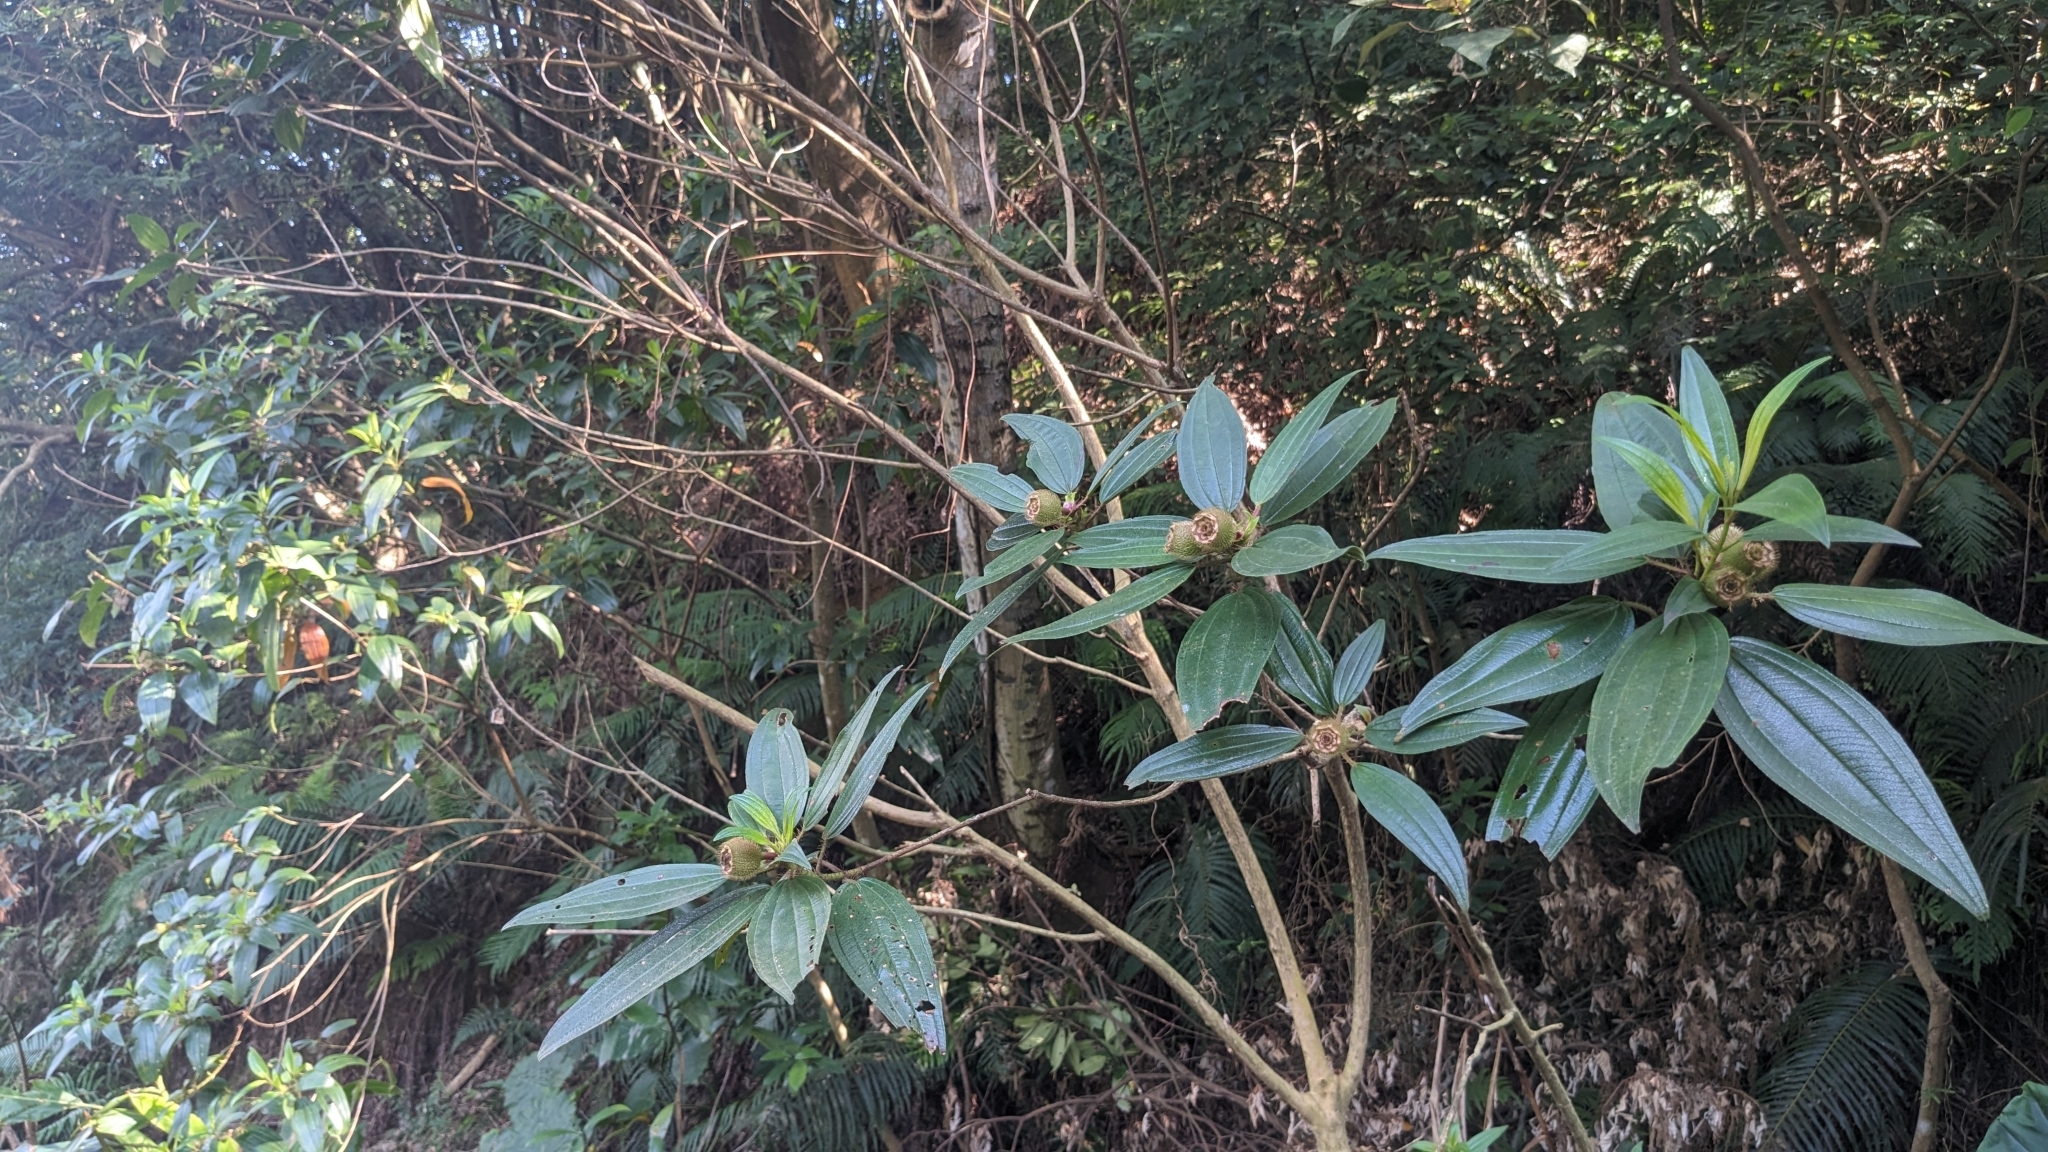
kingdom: Plantae
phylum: Tracheophyta
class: Magnoliopsida
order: Myrtales
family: Melastomataceae
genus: Melastoma
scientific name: Melastoma sanguineum
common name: Red melastome
